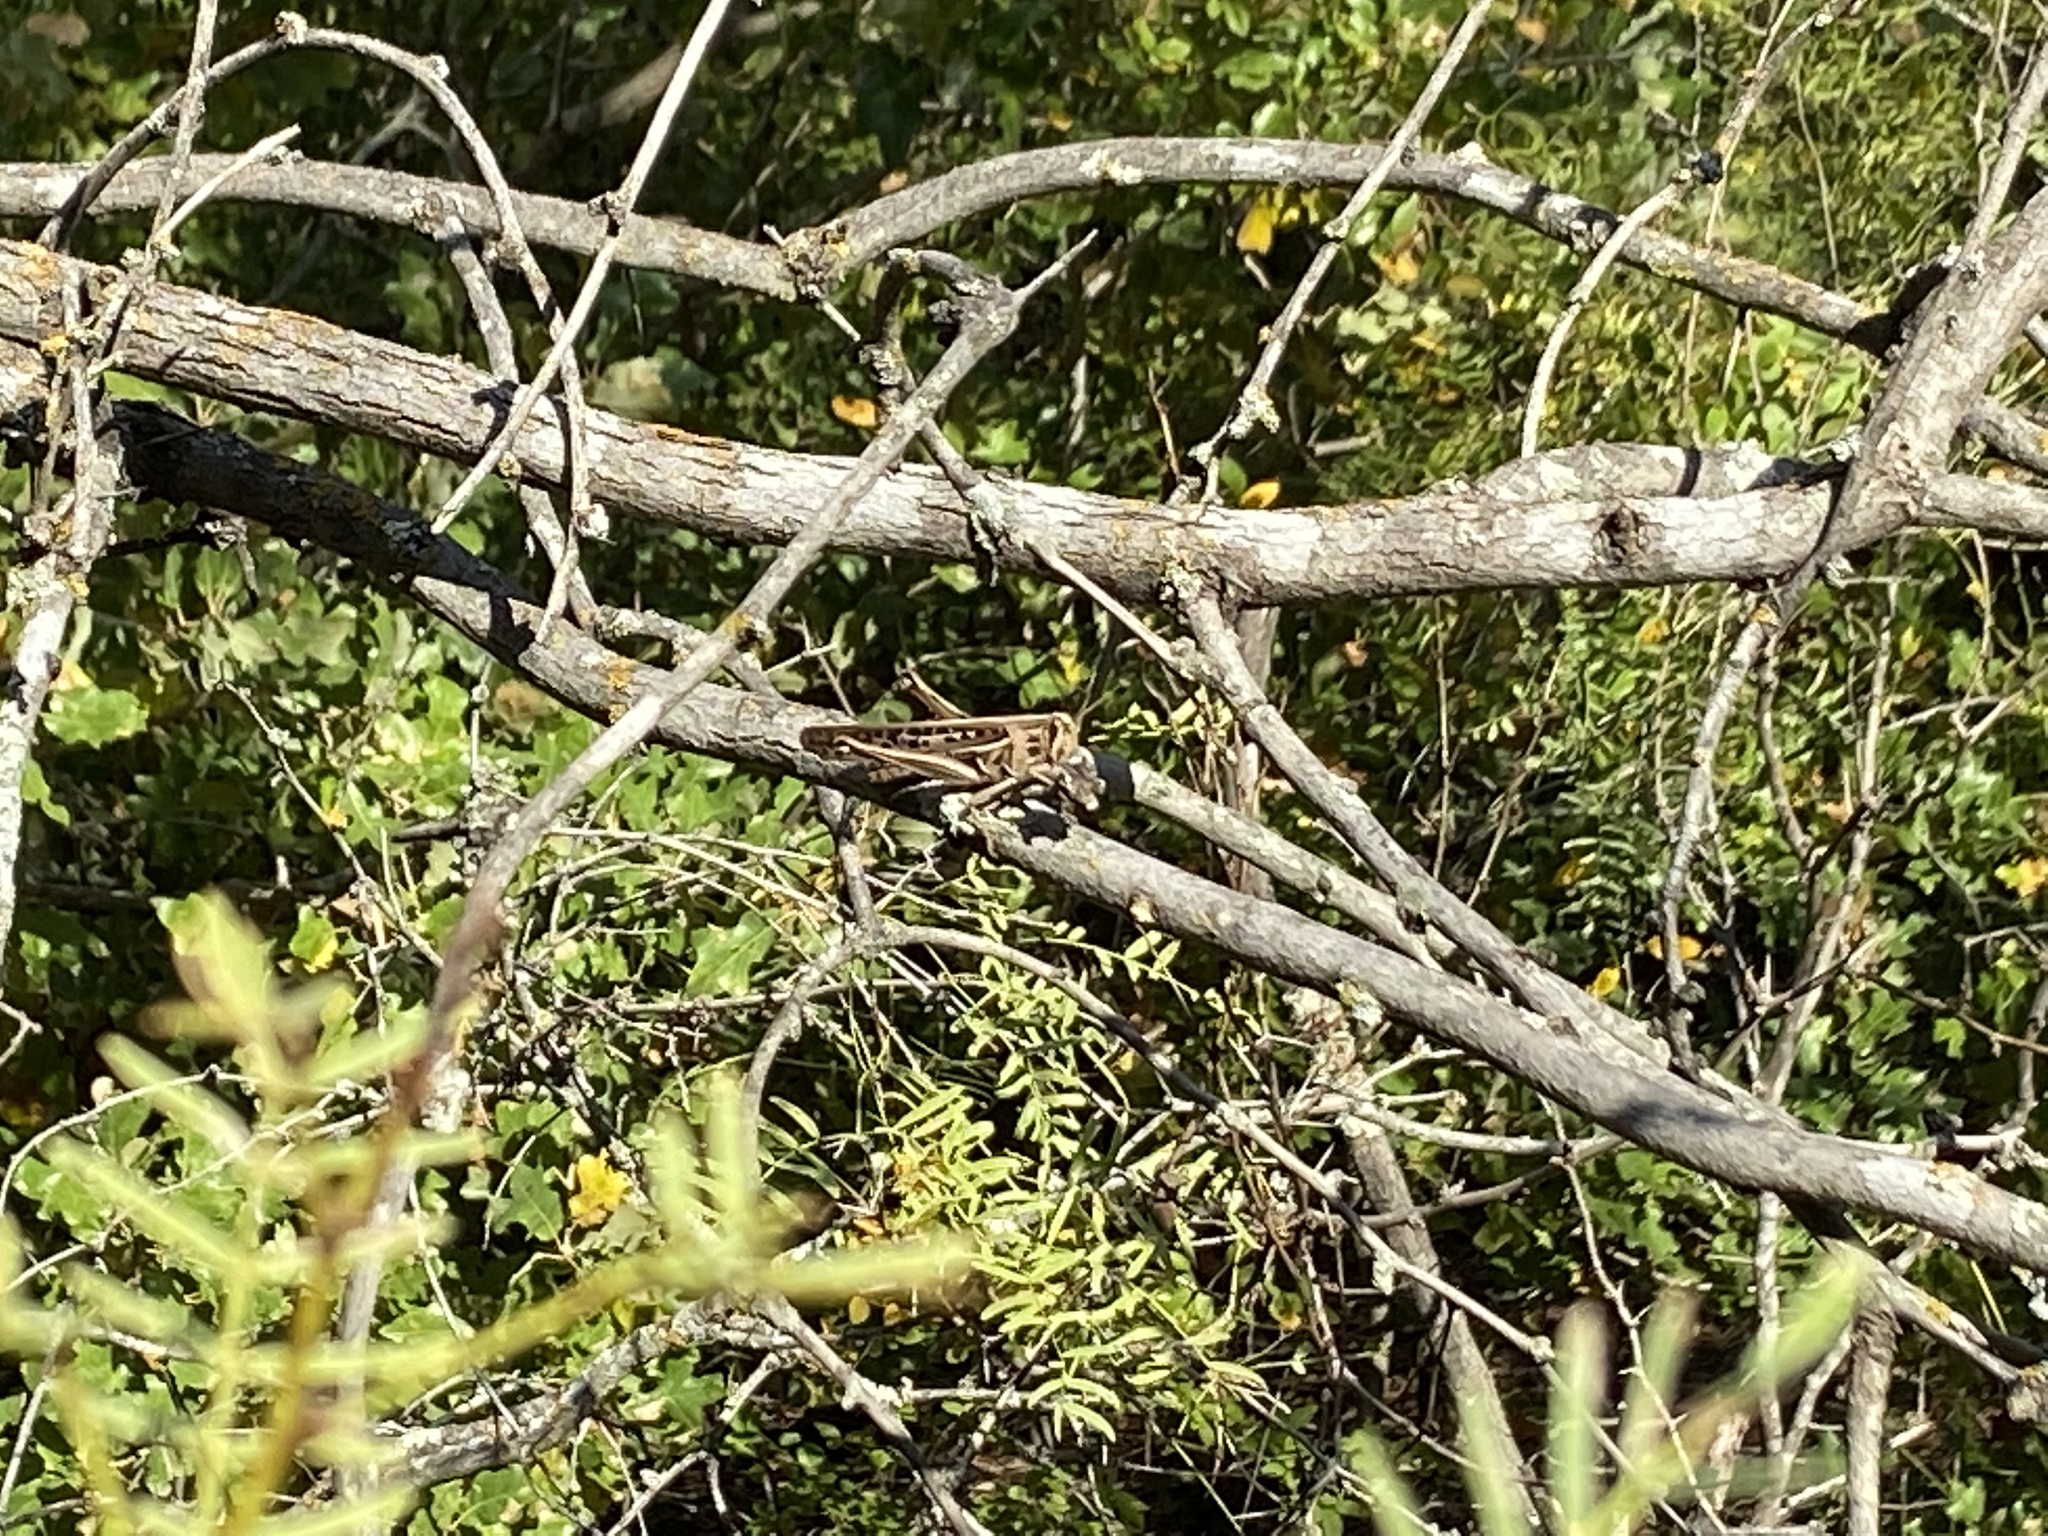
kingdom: Animalia
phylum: Arthropoda
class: Insecta
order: Orthoptera
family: Acrididae
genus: Schistocerca
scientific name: Schistocerca americana
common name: American bird locust
